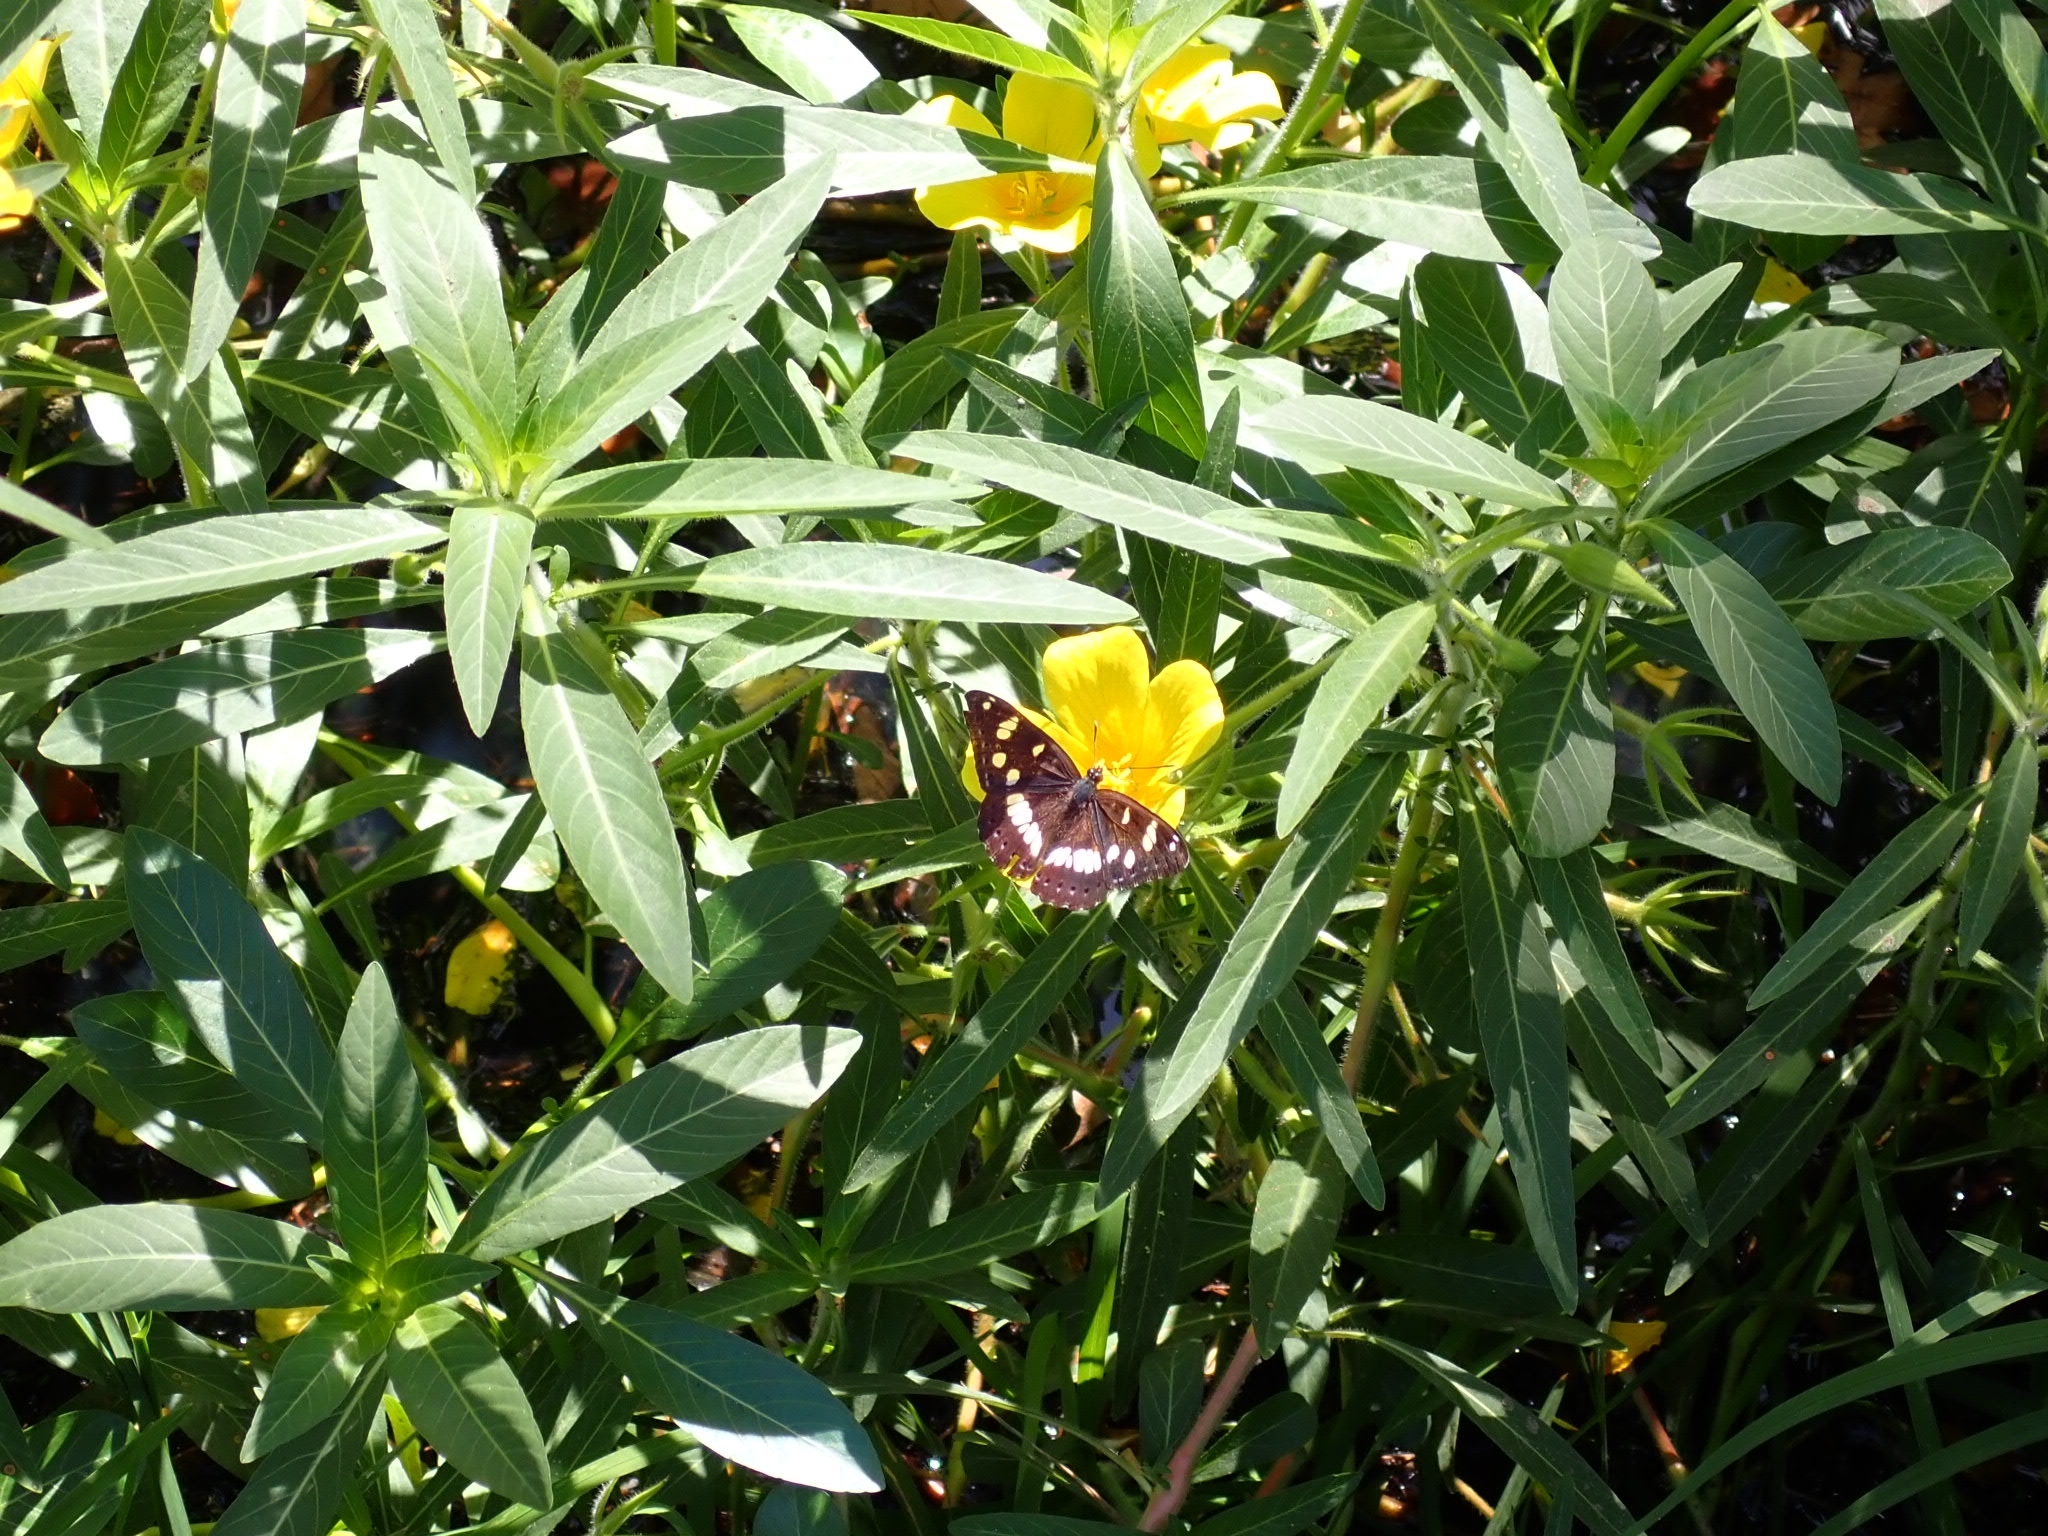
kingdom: Animalia
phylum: Arthropoda
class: Insecta
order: Lepidoptera
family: Nymphalidae
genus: Limenitis
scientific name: Limenitis reducta
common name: Southern white admiral
